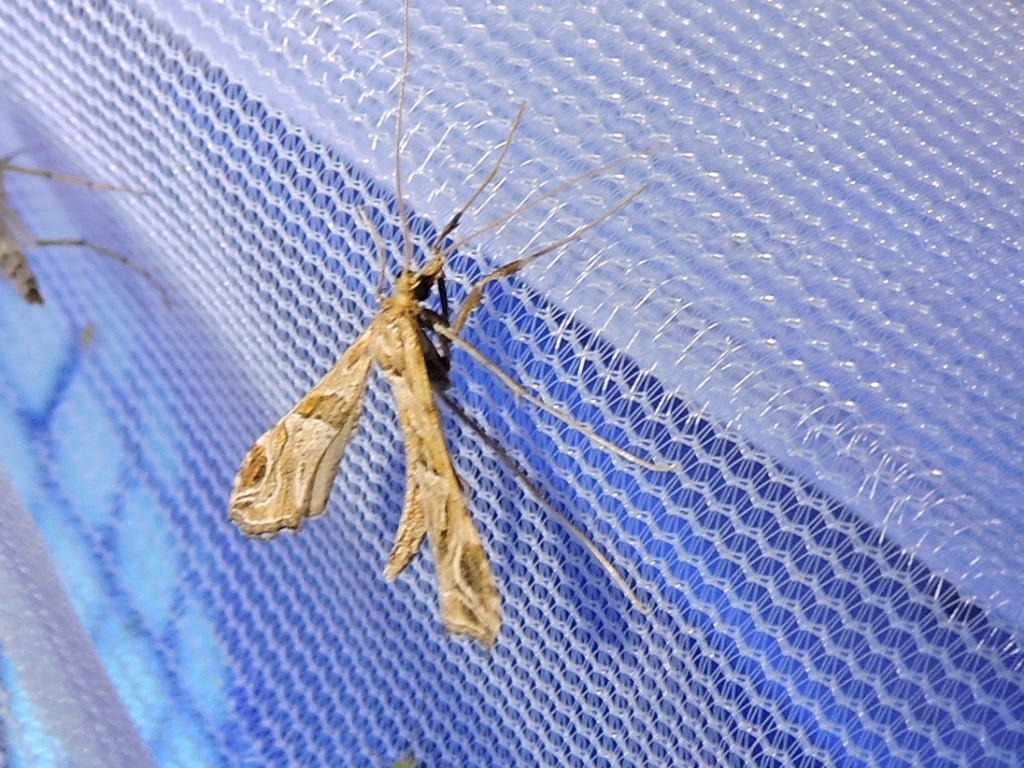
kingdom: Animalia
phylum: Arthropoda
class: Insecta
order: Lepidoptera
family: Crambidae
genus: Lineodes
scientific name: Lineodes interrupta
